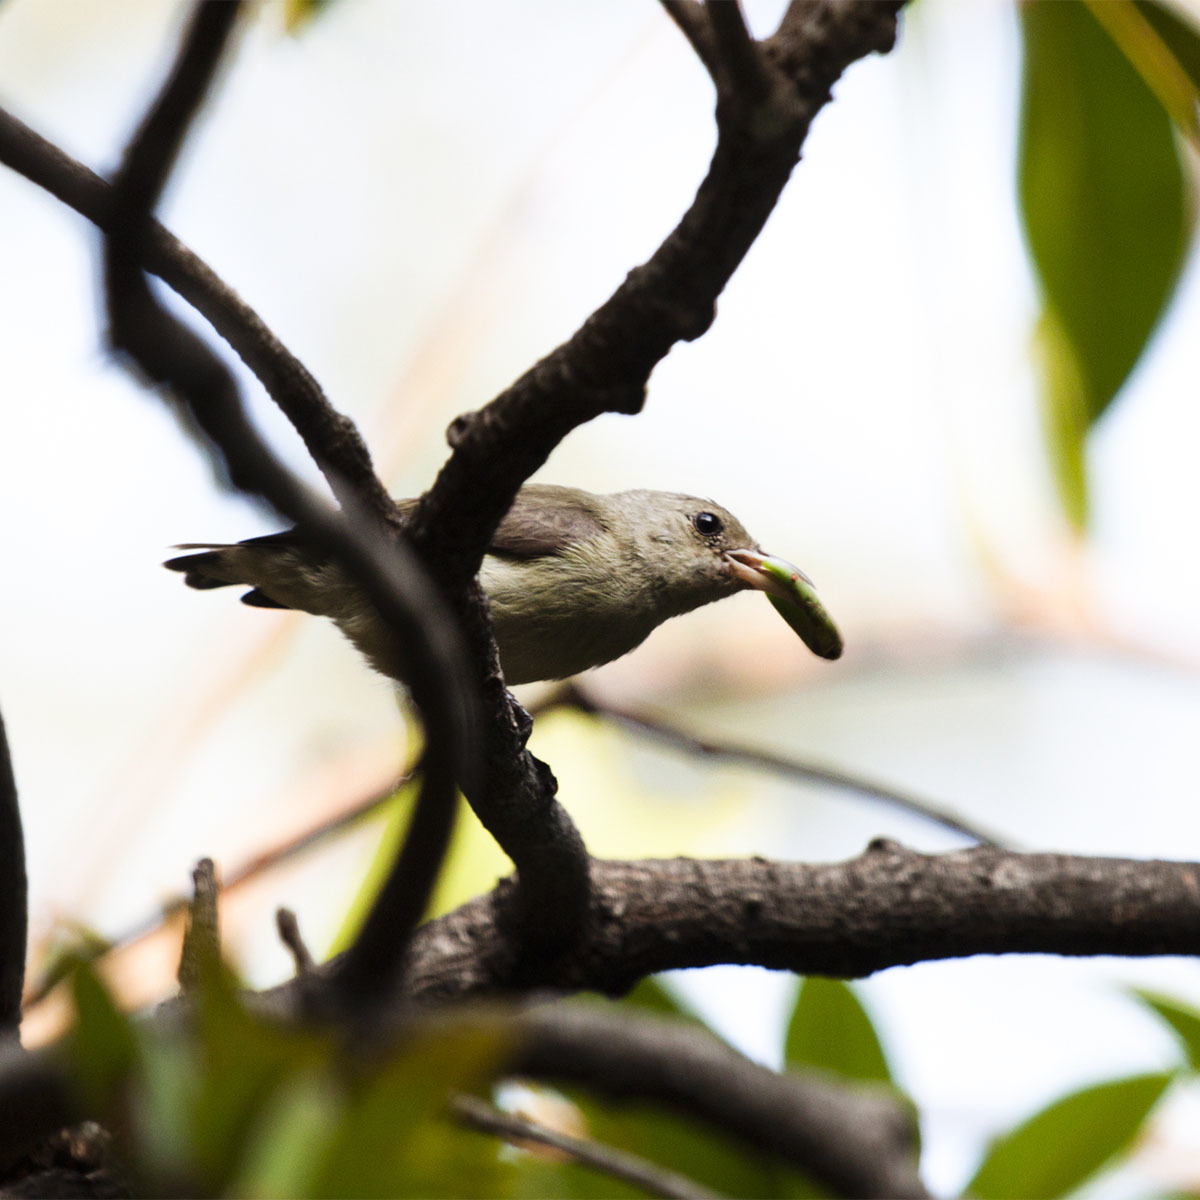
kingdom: Animalia
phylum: Chordata
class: Aves
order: Passeriformes
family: Dicaeidae
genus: Dicaeum
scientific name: Dicaeum erythrorhynchos
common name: Pale-billed flowerpecker
